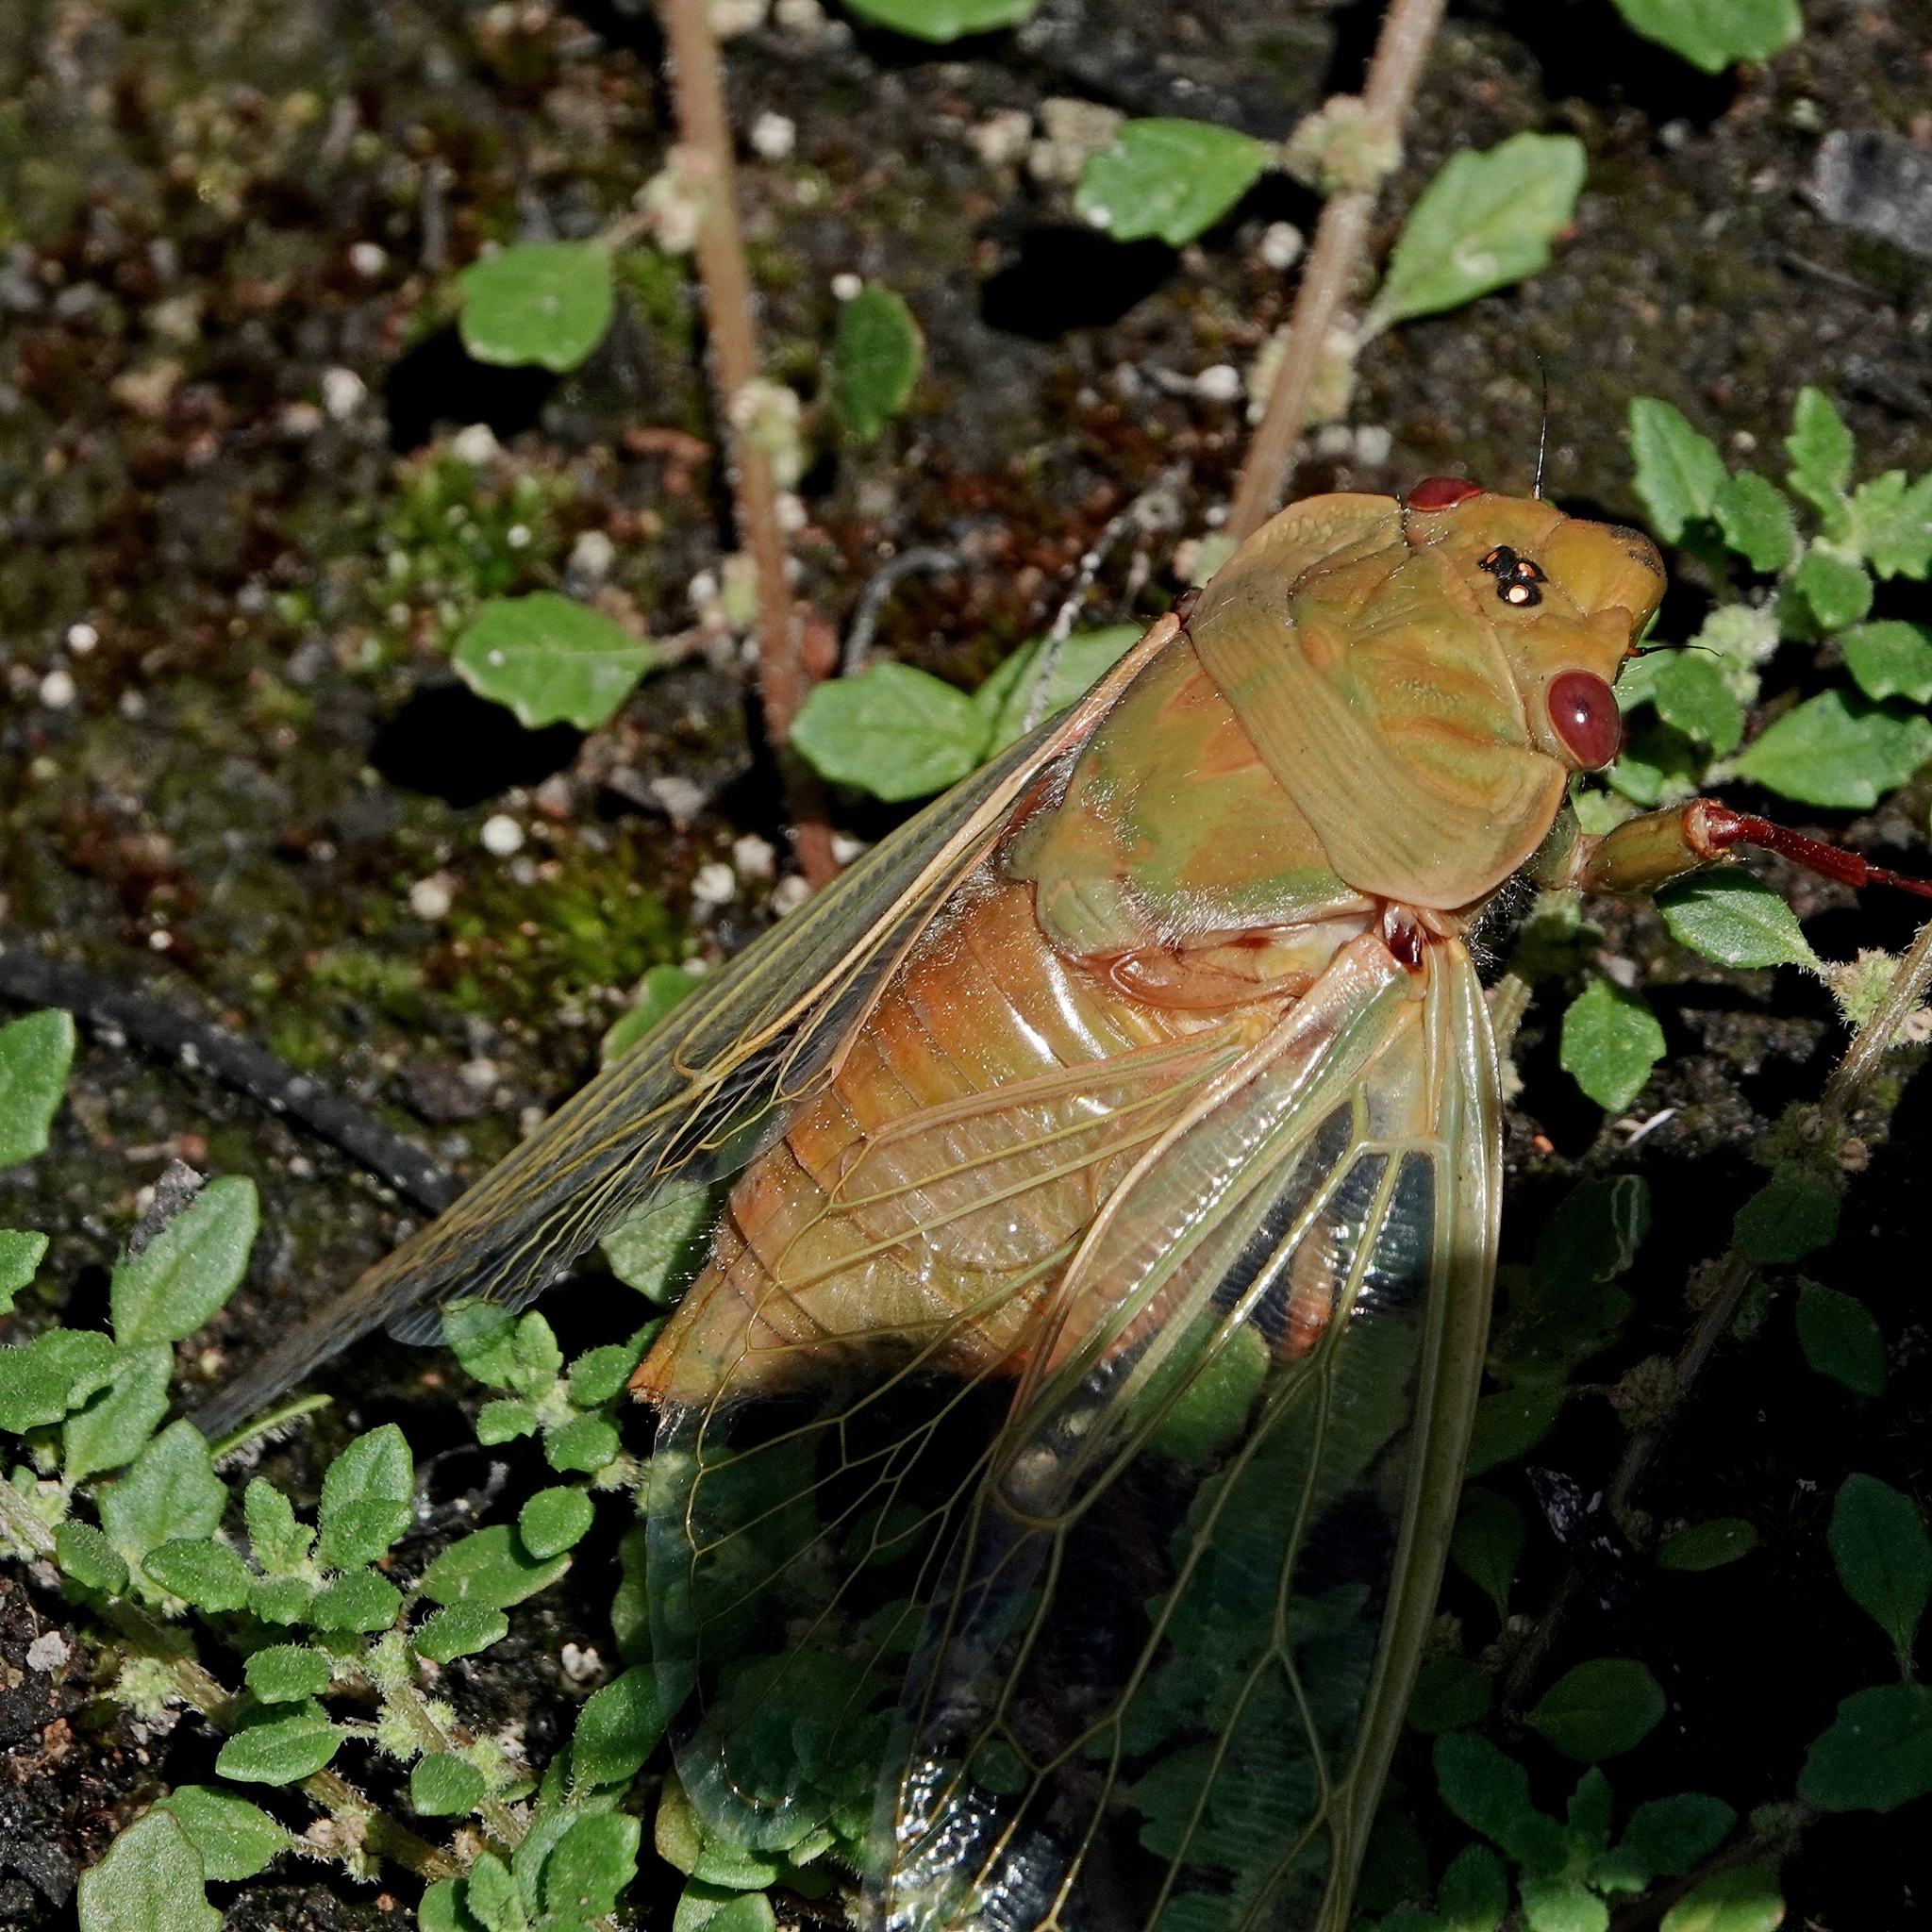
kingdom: Animalia
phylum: Arthropoda
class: Insecta
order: Hemiptera
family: Cicadidae
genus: Cyclochila
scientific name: Cyclochila australasiae
